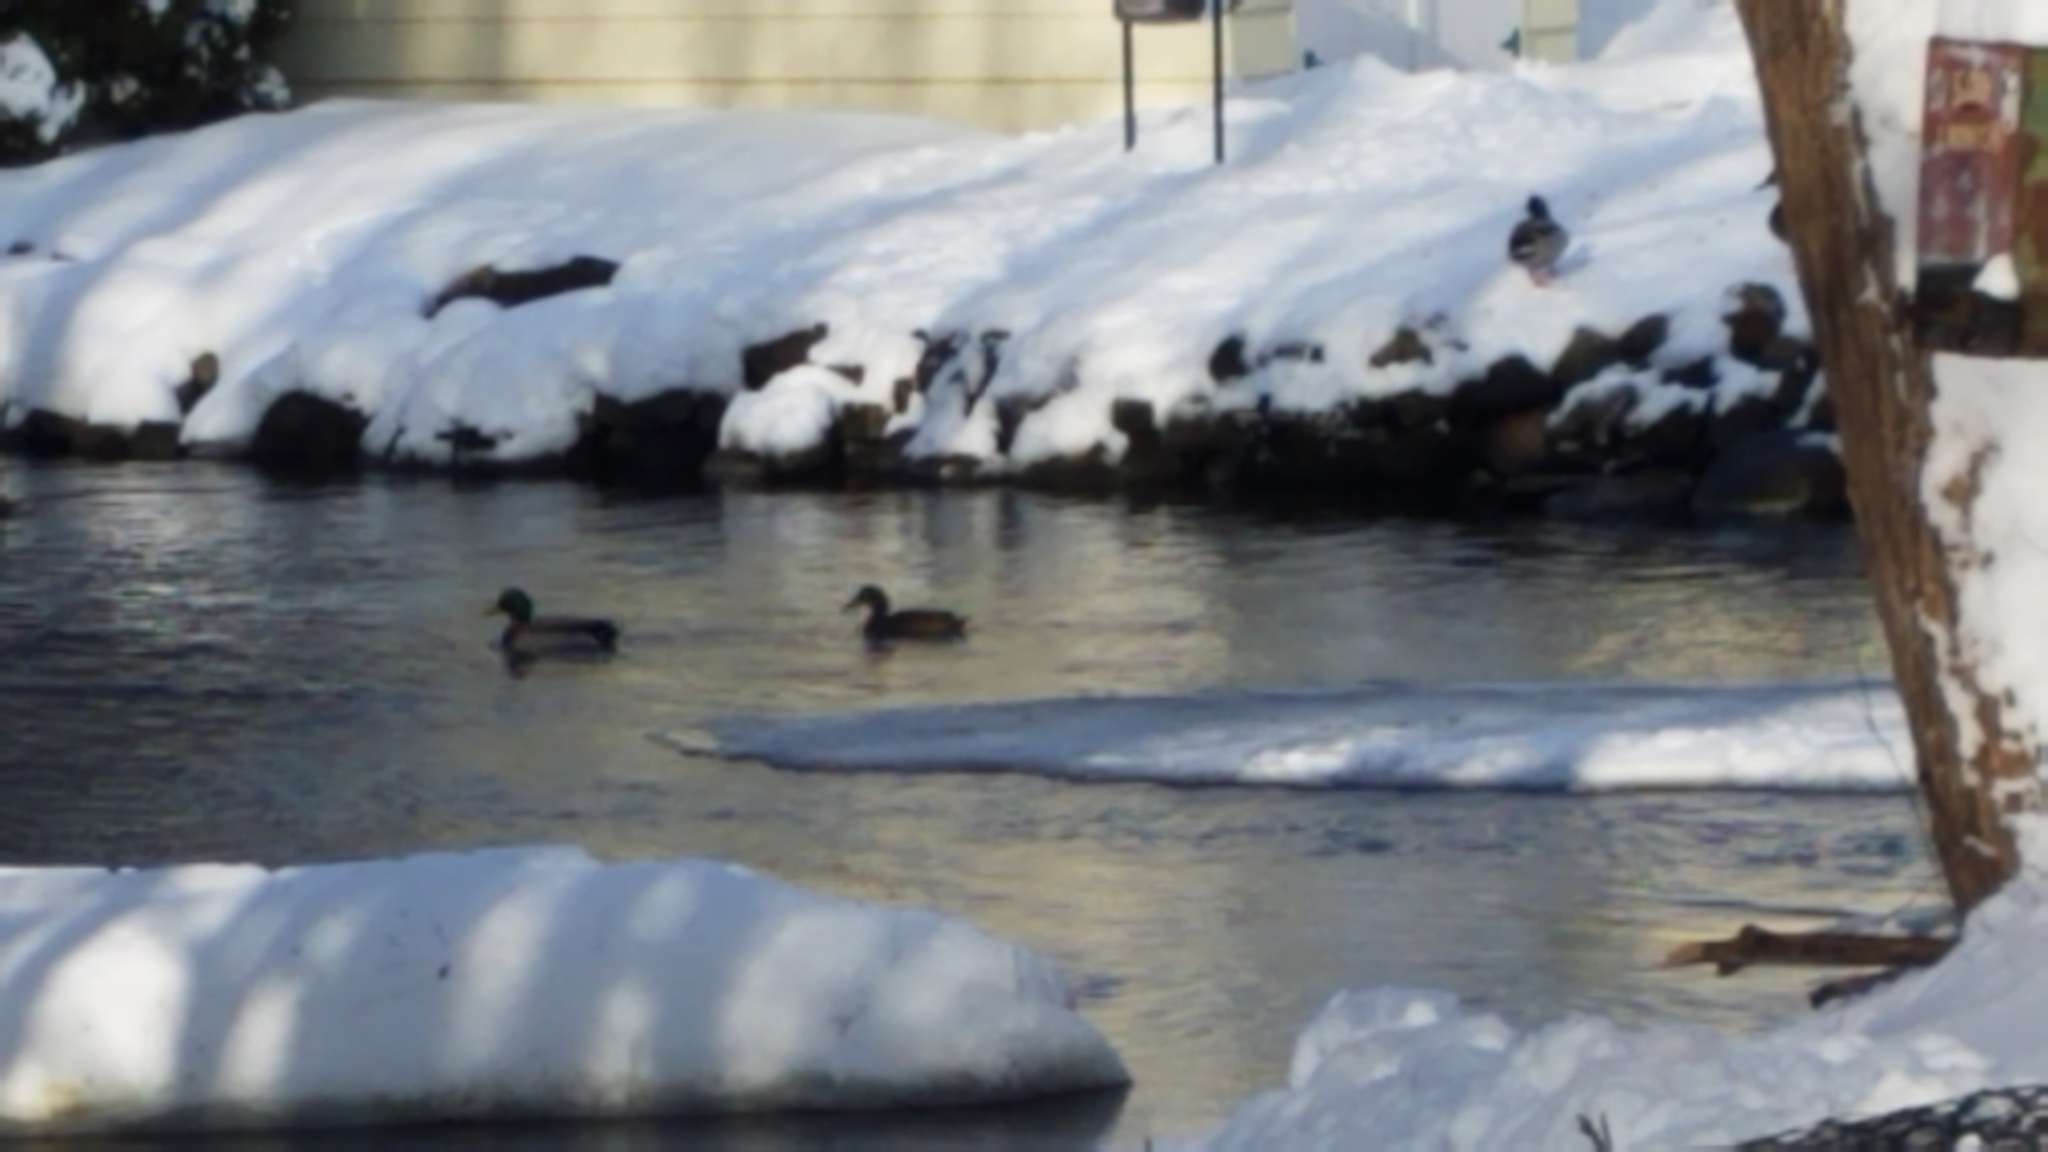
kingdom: Animalia
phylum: Chordata
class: Aves
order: Anseriformes
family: Anatidae
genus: Anas
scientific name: Anas platyrhynchos
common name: Mallard
